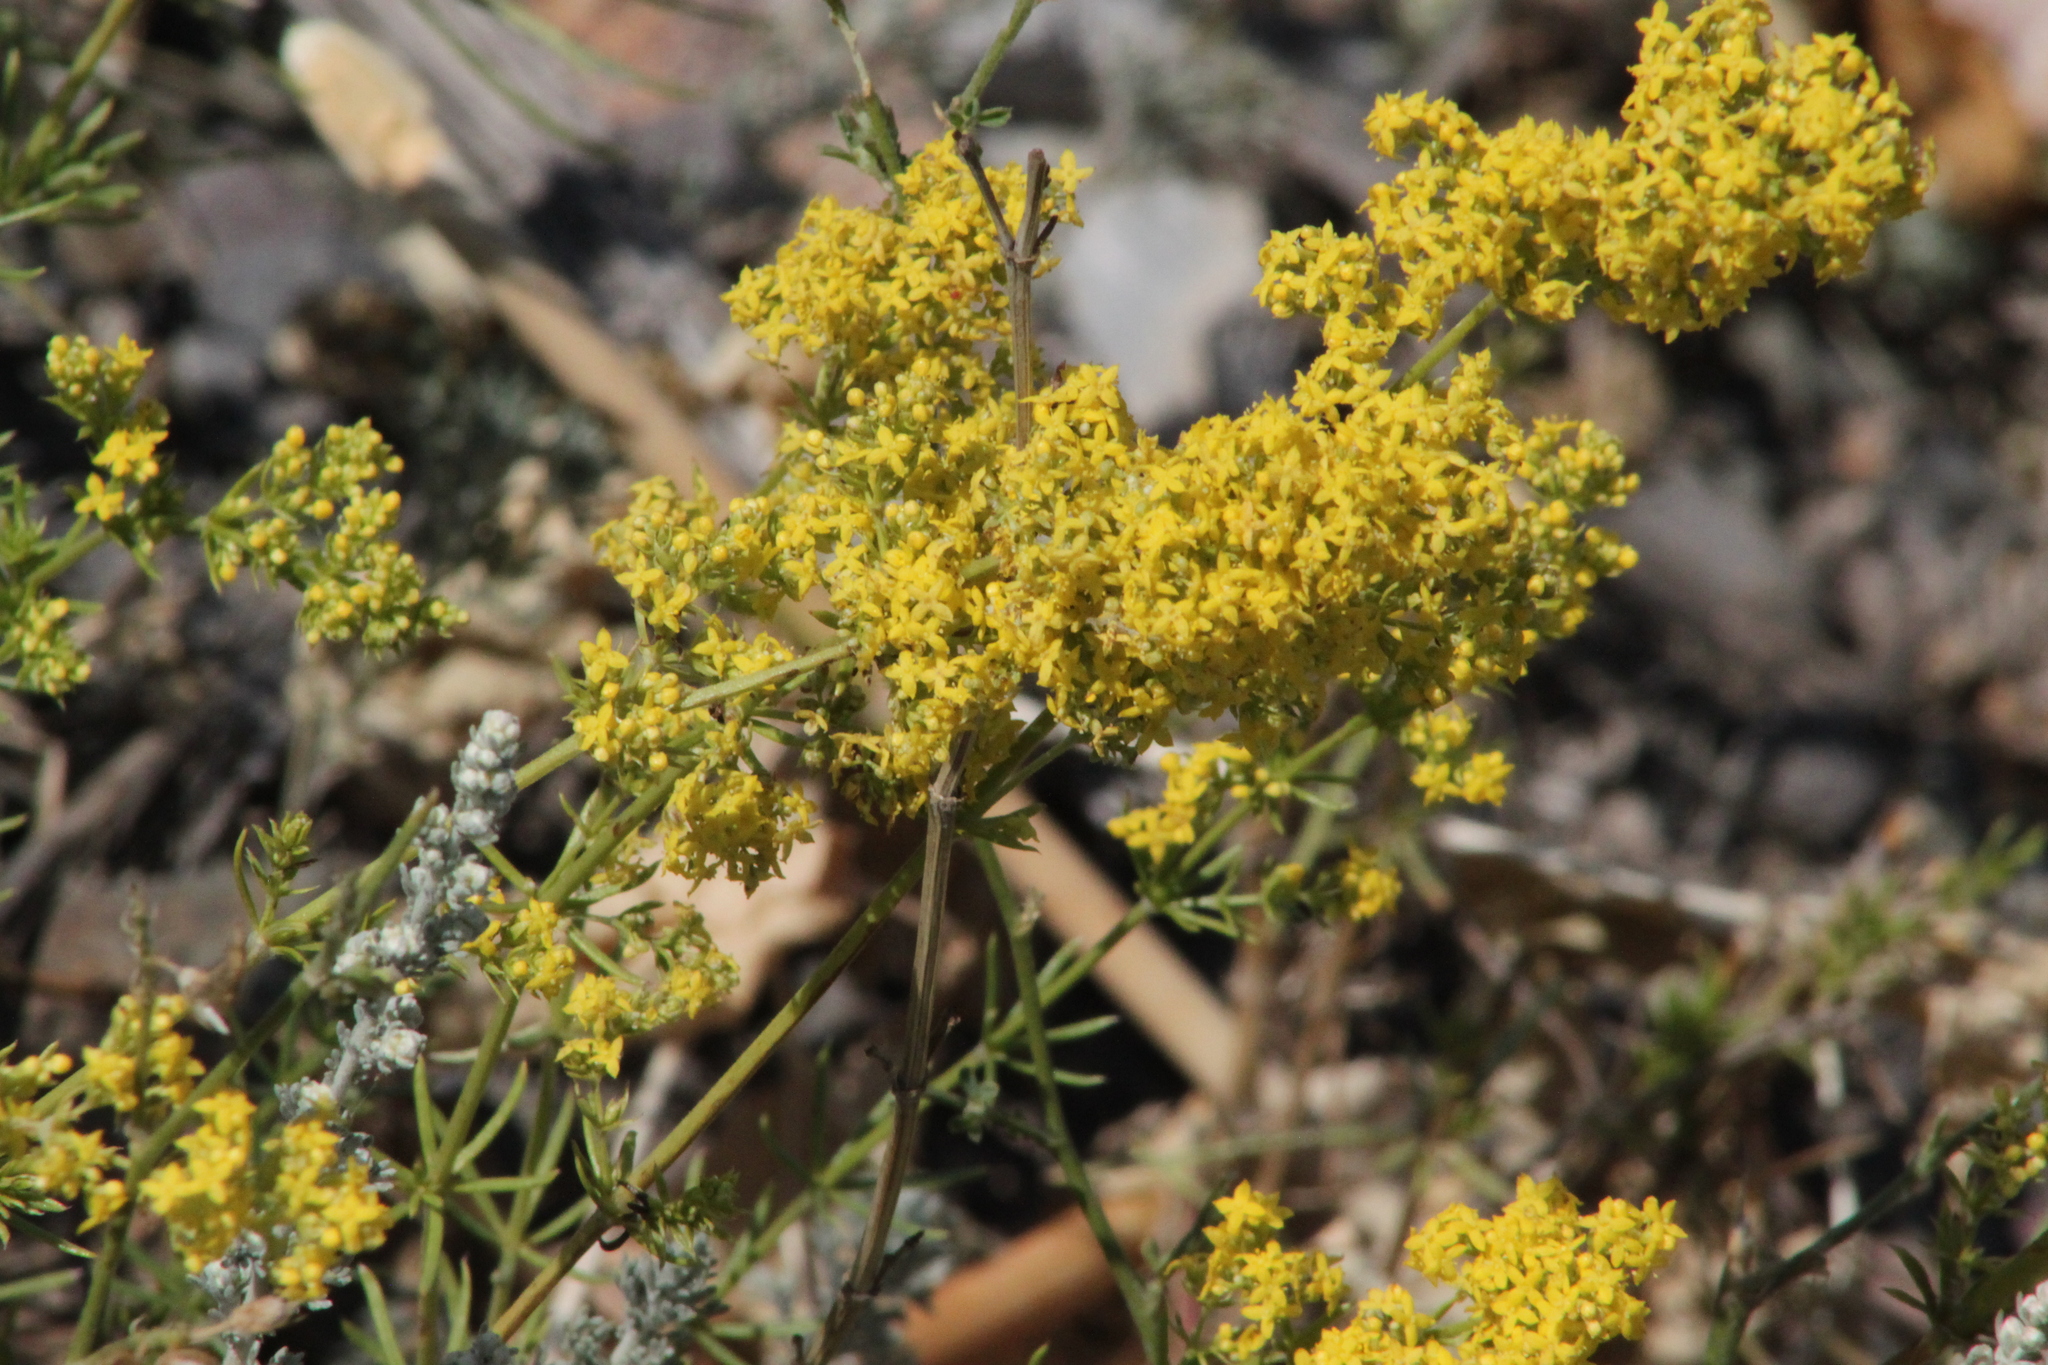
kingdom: Plantae
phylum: Tracheophyta
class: Magnoliopsida
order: Gentianales
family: Rubiaceae
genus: Galium
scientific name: Galium verum
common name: Lady's bedstraw
